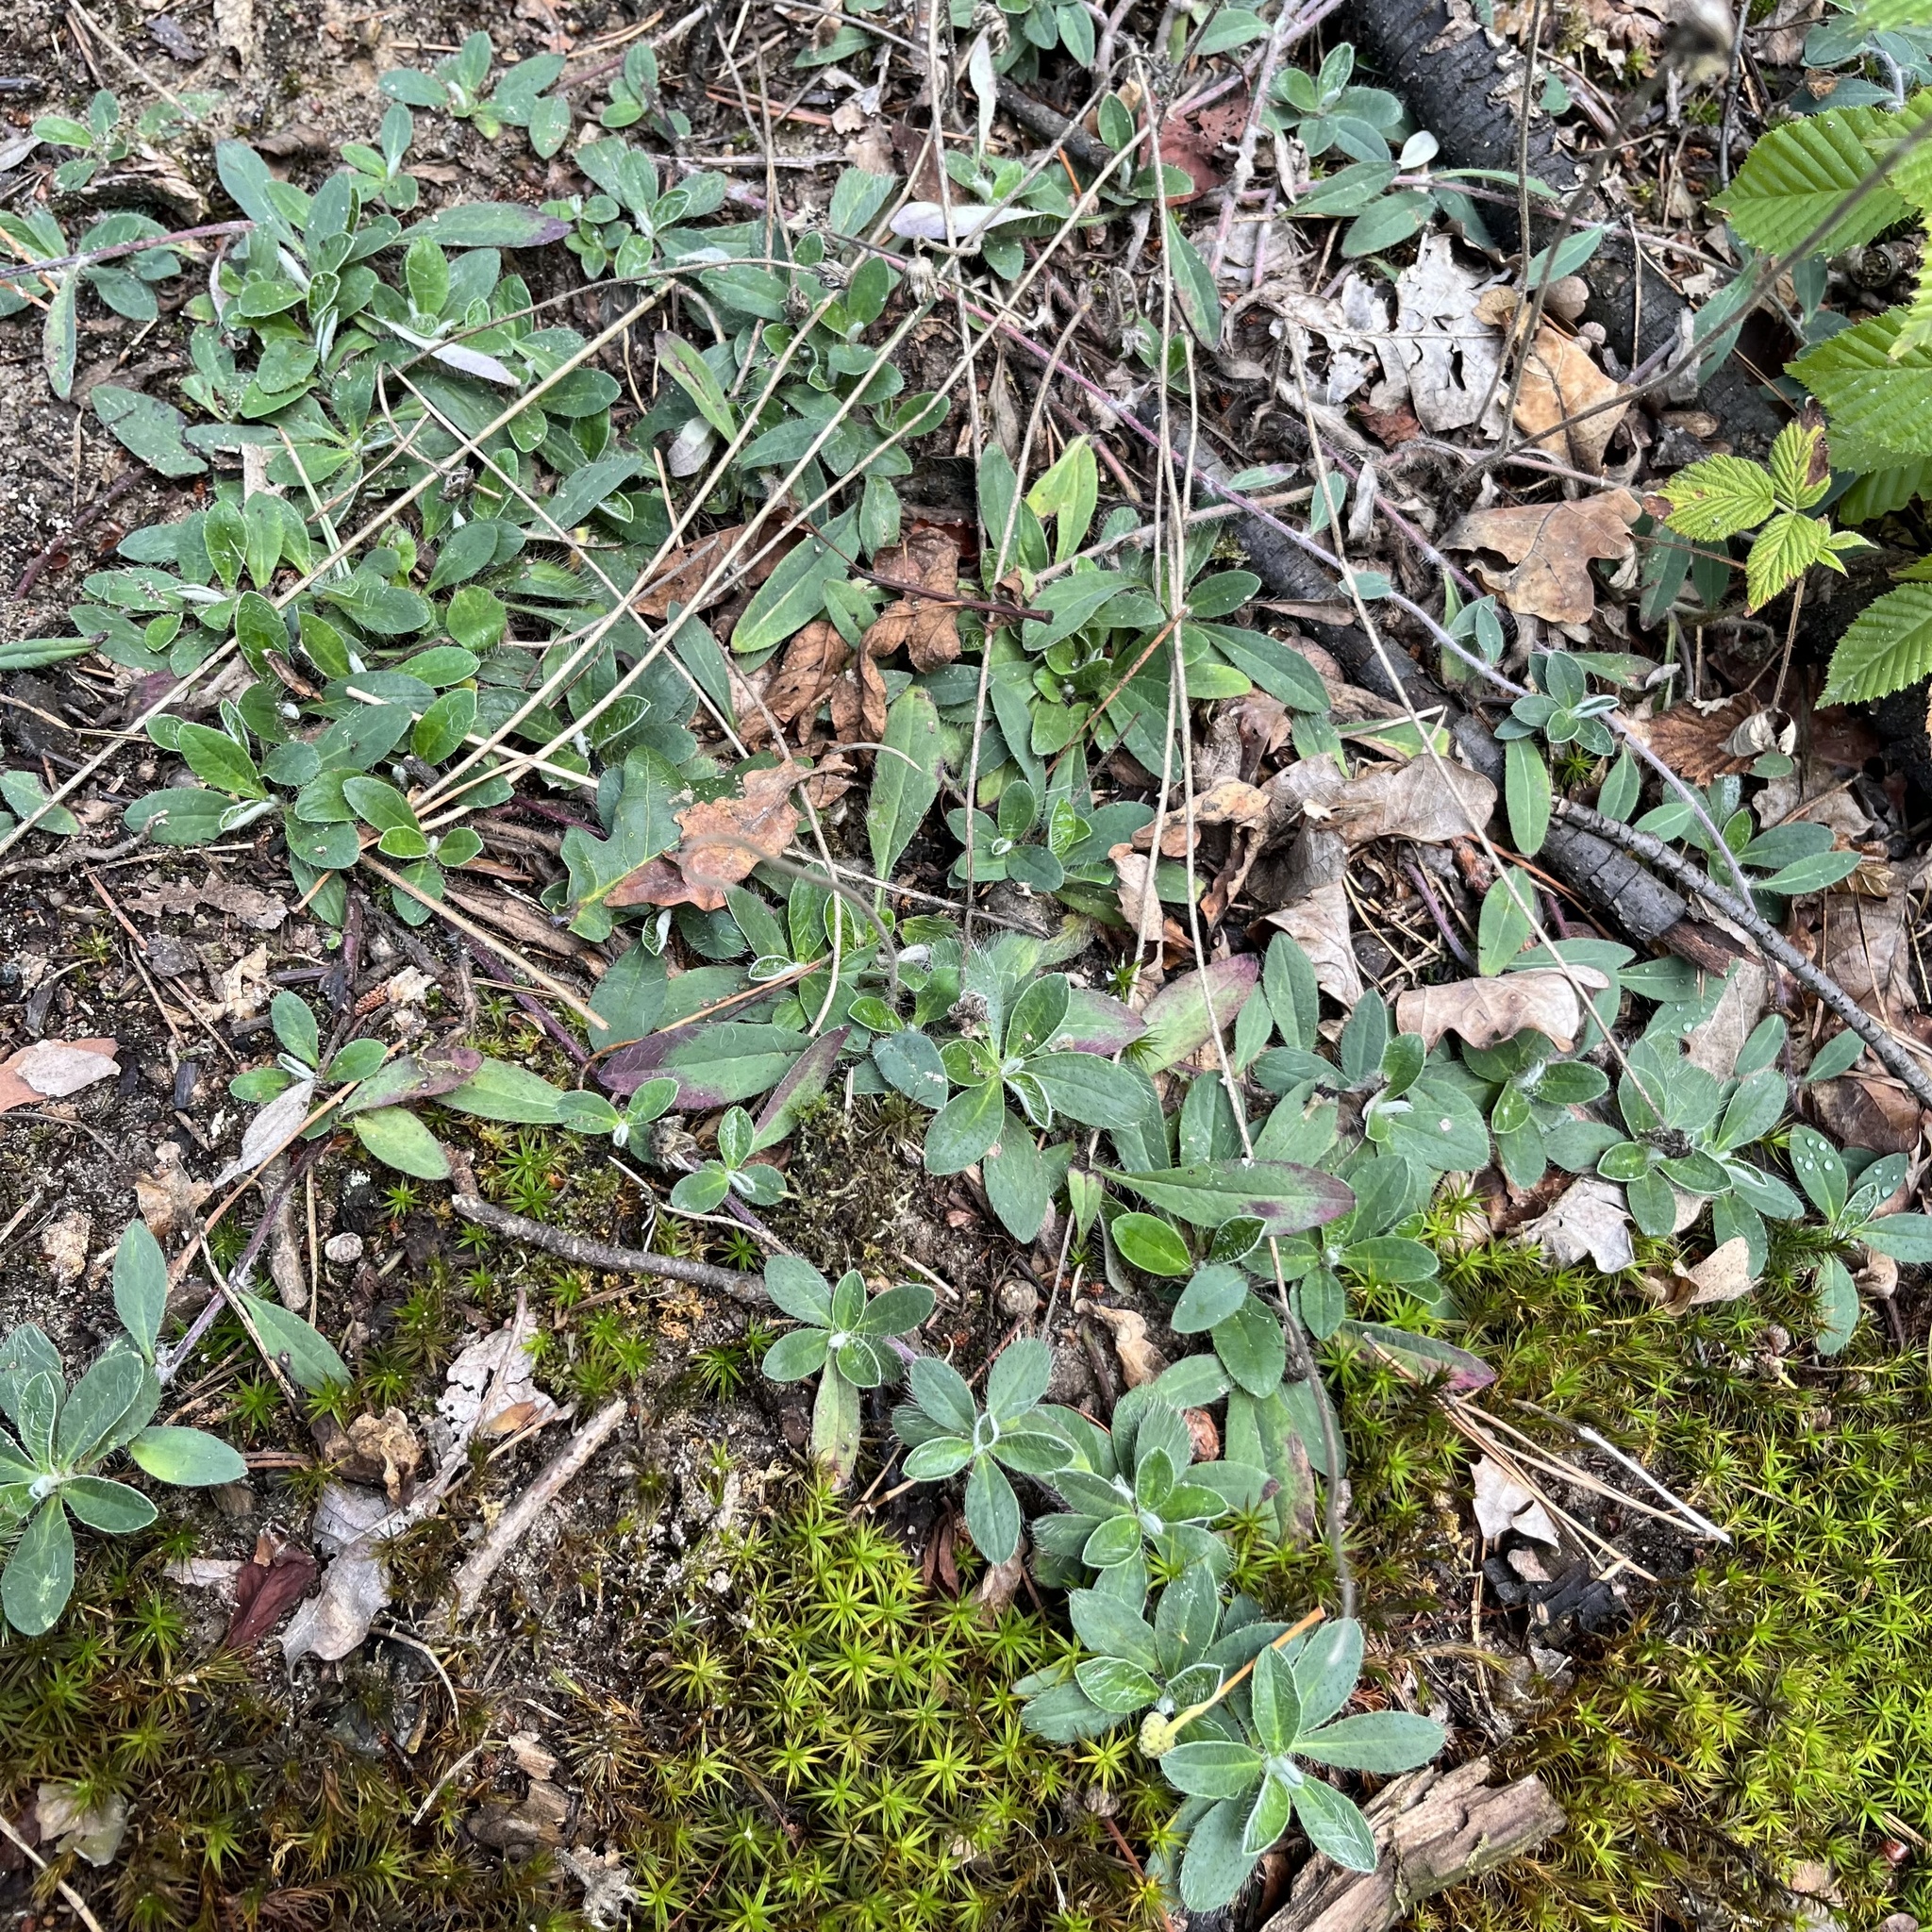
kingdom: Plantae
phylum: Tracheophyta
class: Magnoliopsida
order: Asterales
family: Asteraceae
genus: Pilosella
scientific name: Pilosella officinarum
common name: Mouse-ear hawkweed
